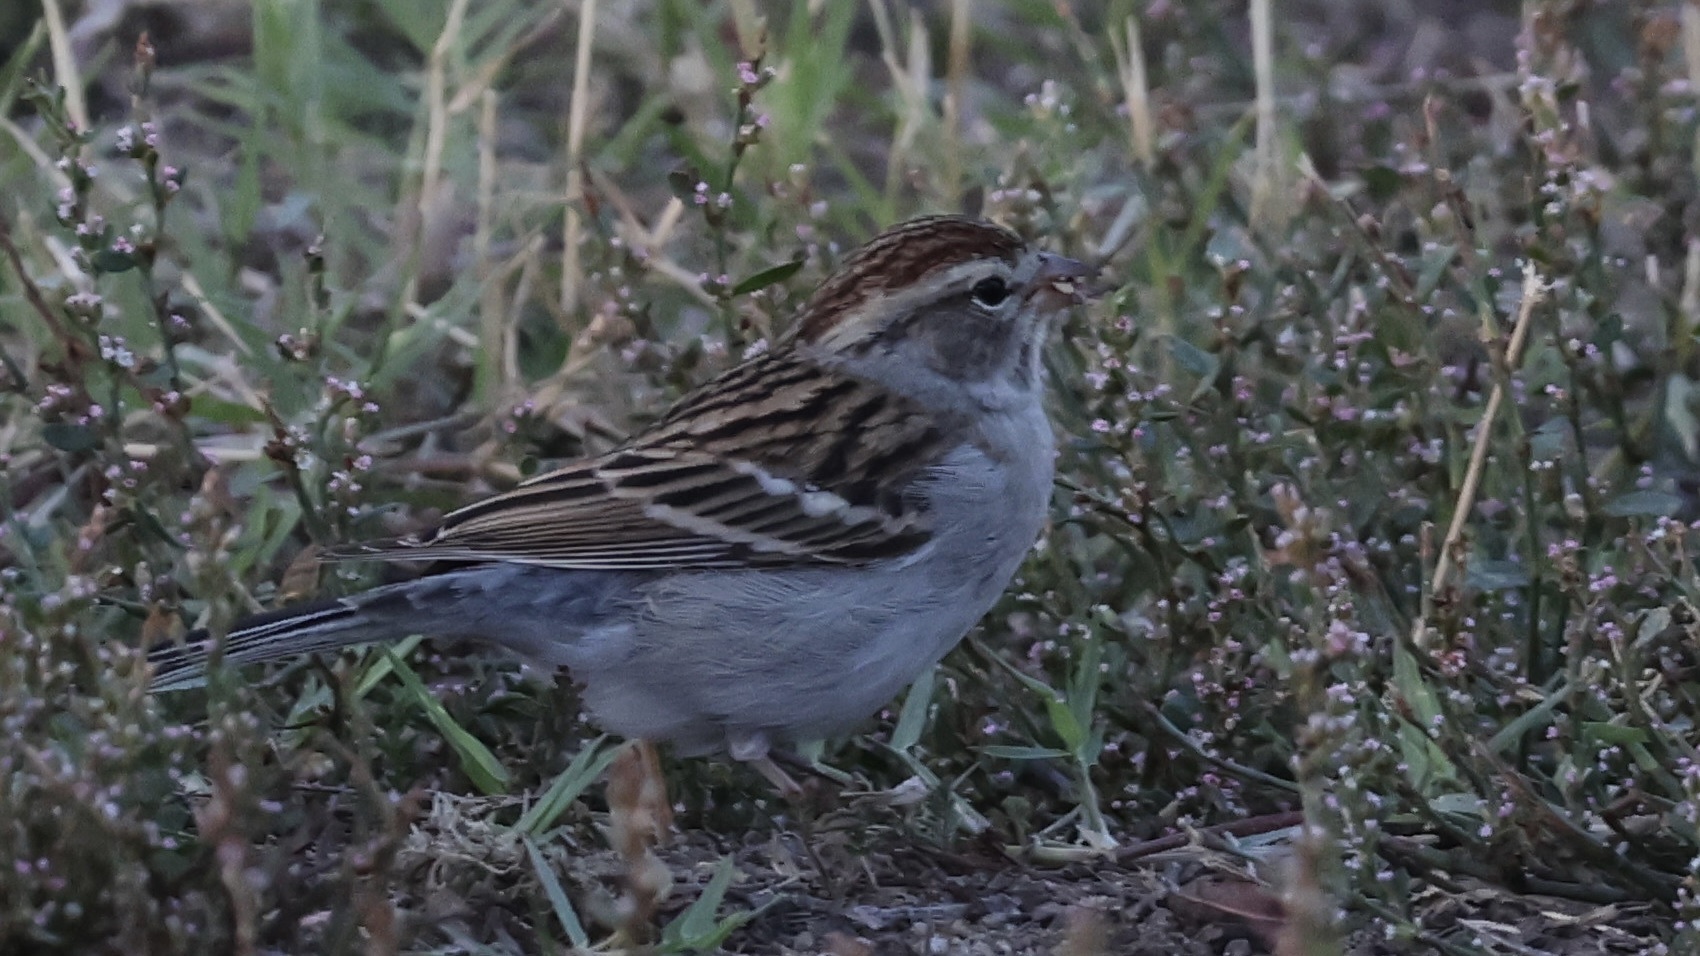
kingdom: Animalia
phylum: Chordata
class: Aves
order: Passeriformes
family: Passerellidae
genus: Spizella
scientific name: Spizella passerina
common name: Chipping sparrow
